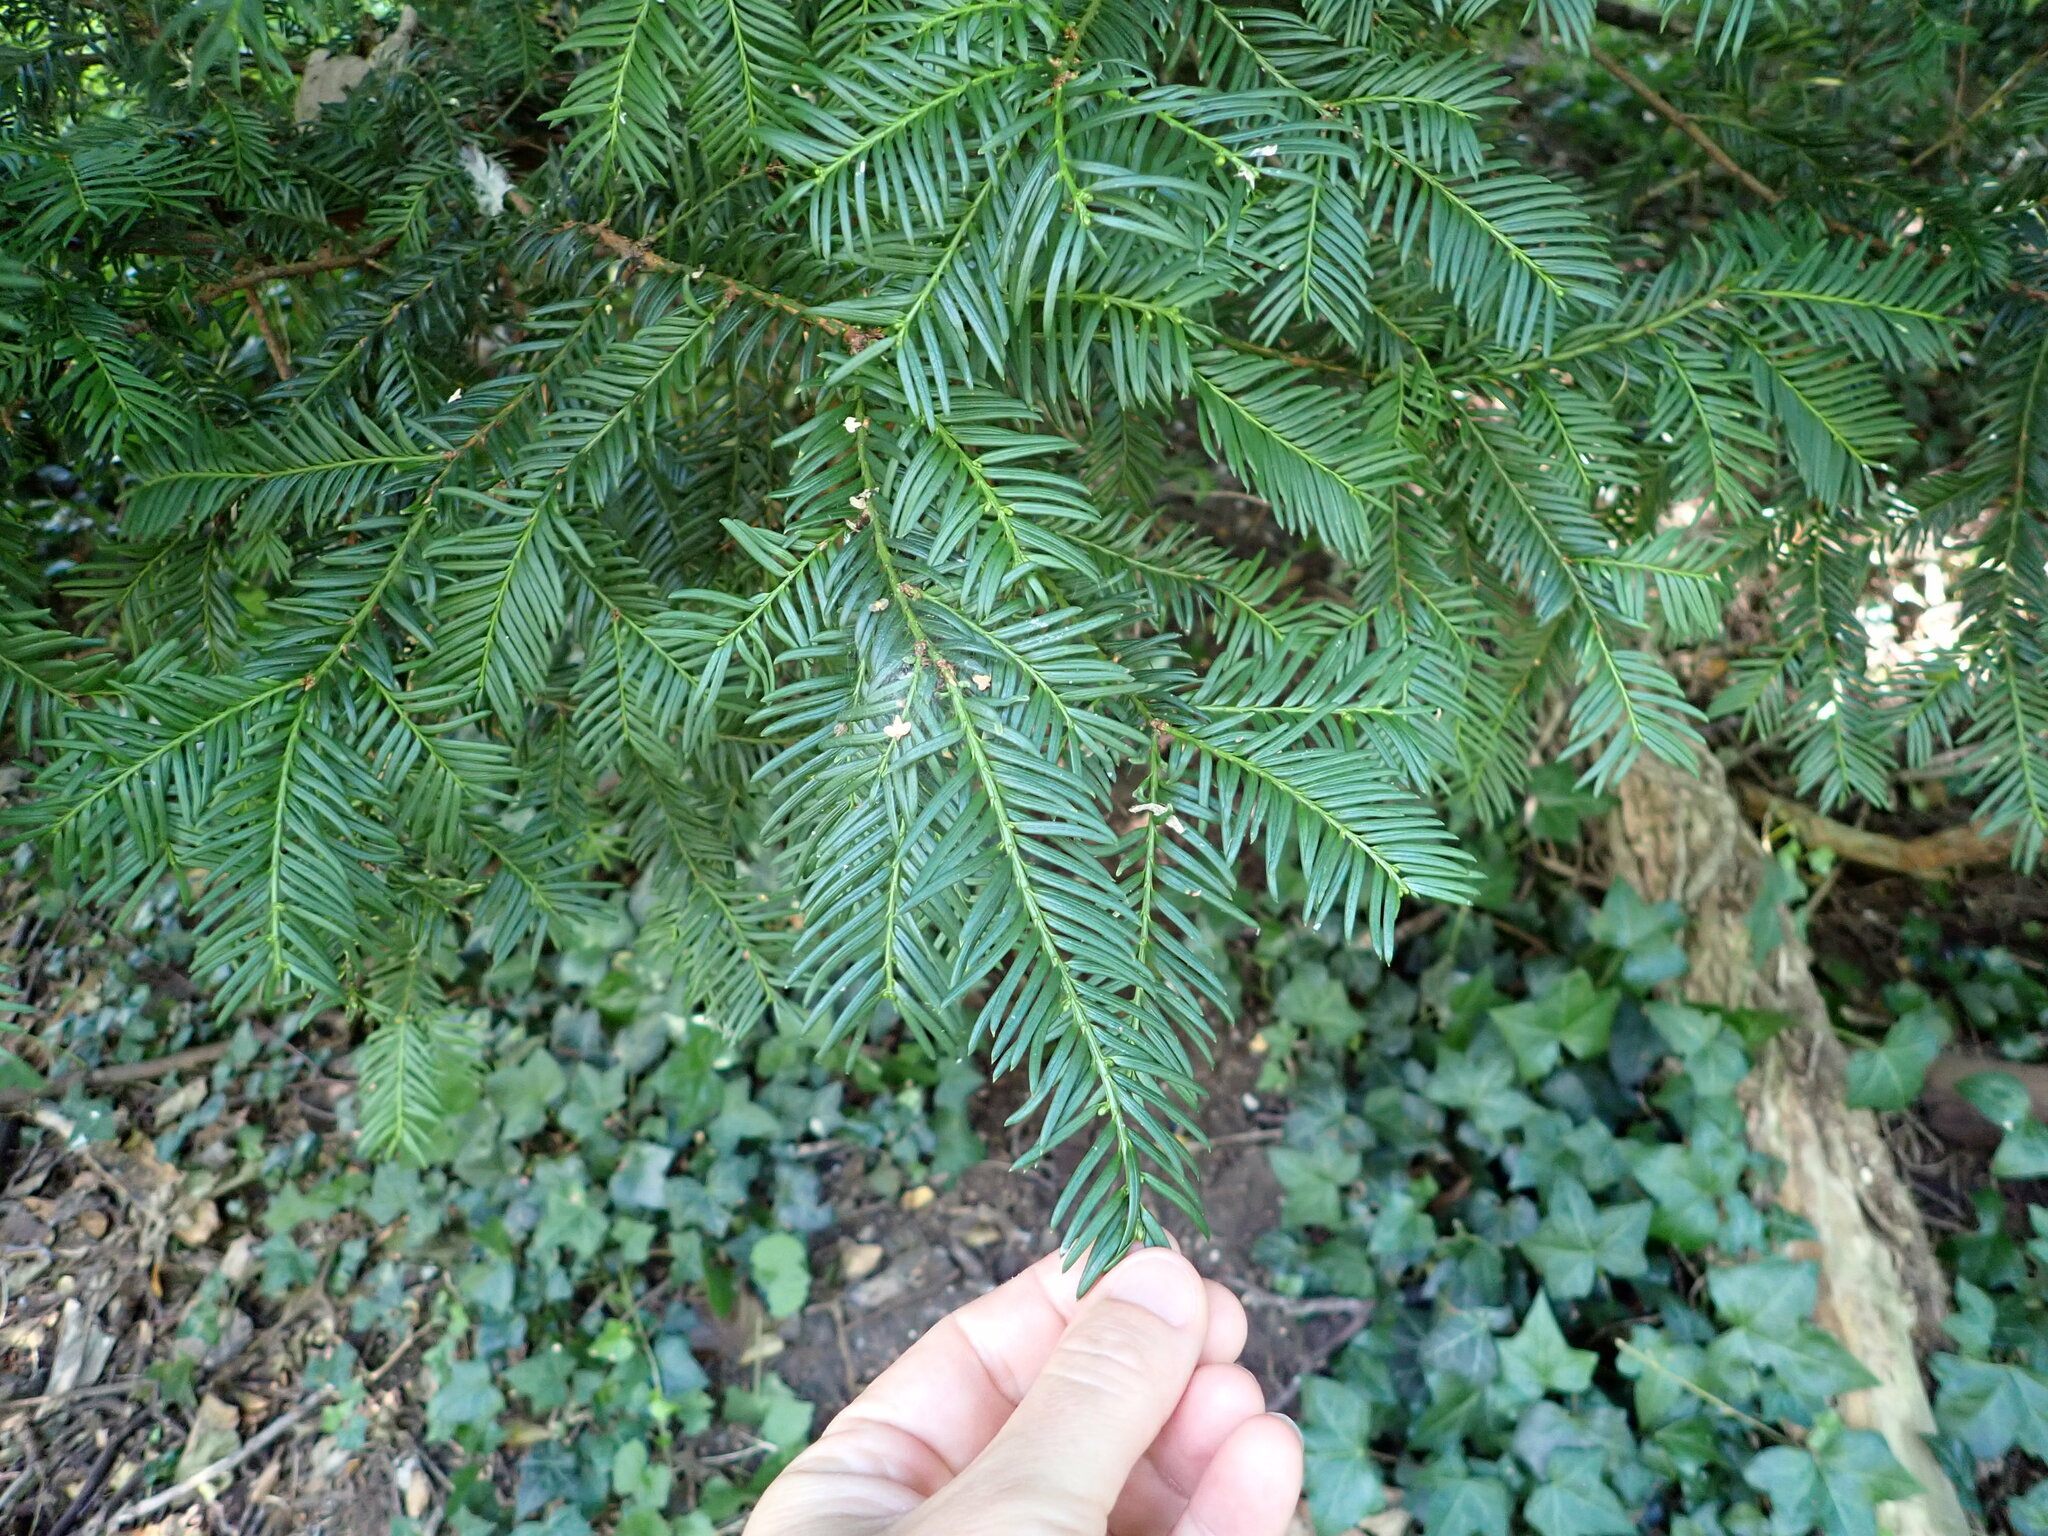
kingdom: Plantae
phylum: Tracheophyta
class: Pinopsida
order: Pinales
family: Taxaceae
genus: Taxus
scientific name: Taxus baccata
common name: Yew
